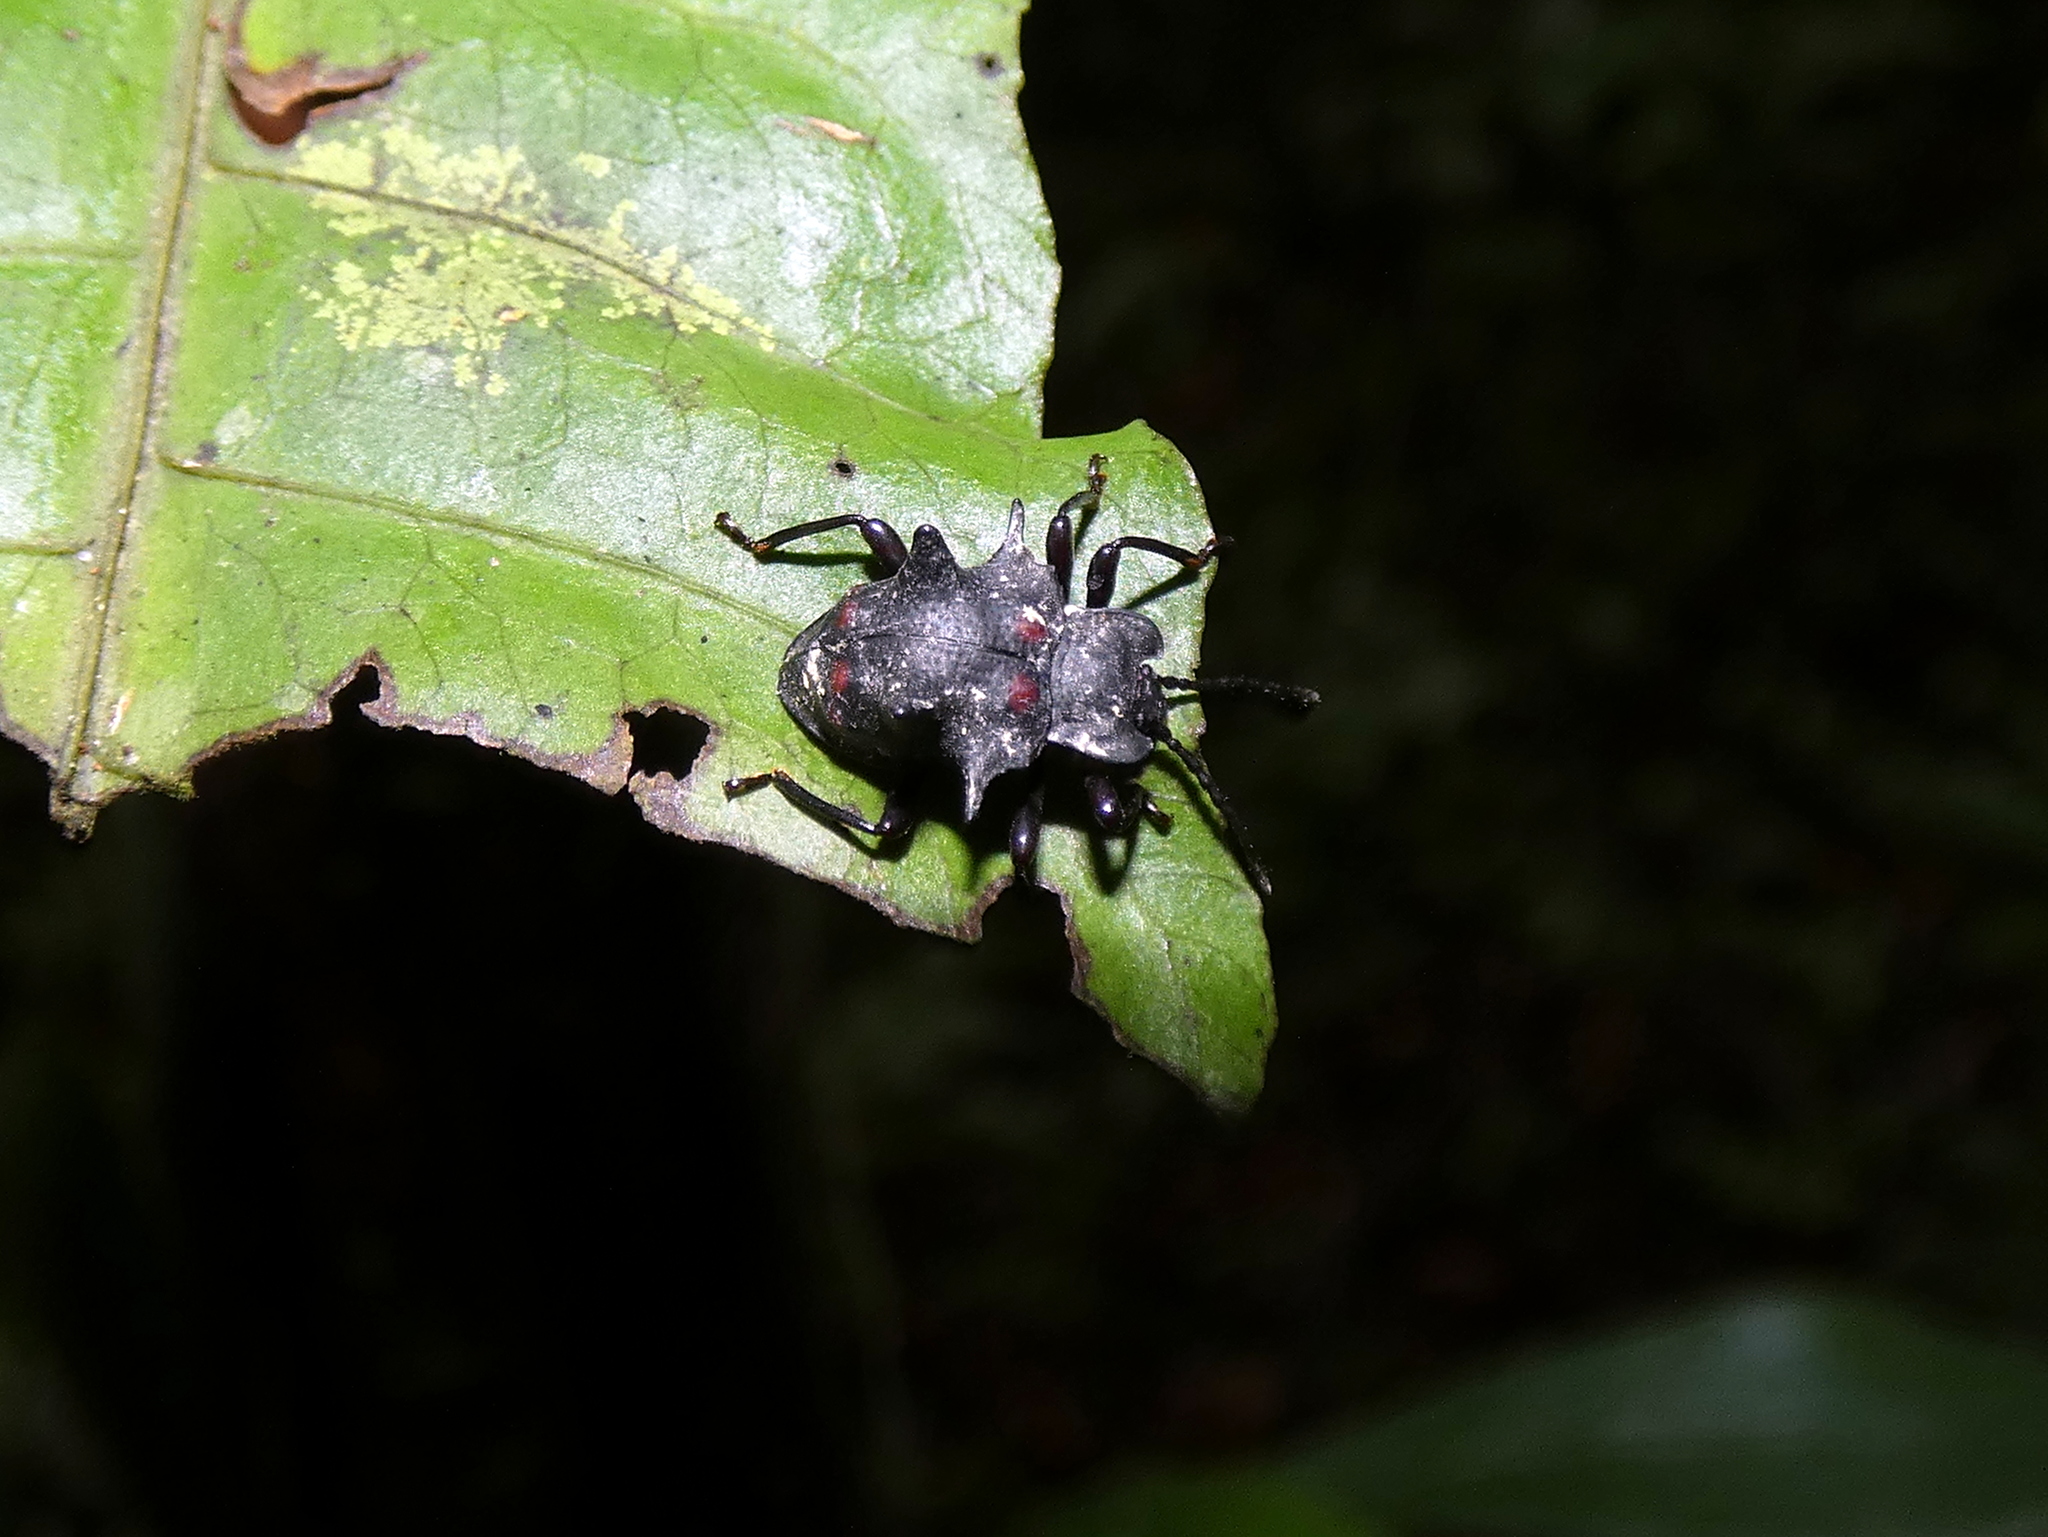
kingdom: Animalia
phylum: Arthropoda
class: Insecta
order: Coleoptera
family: Endomychidae
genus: Amphisternus
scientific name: Amphisternus
